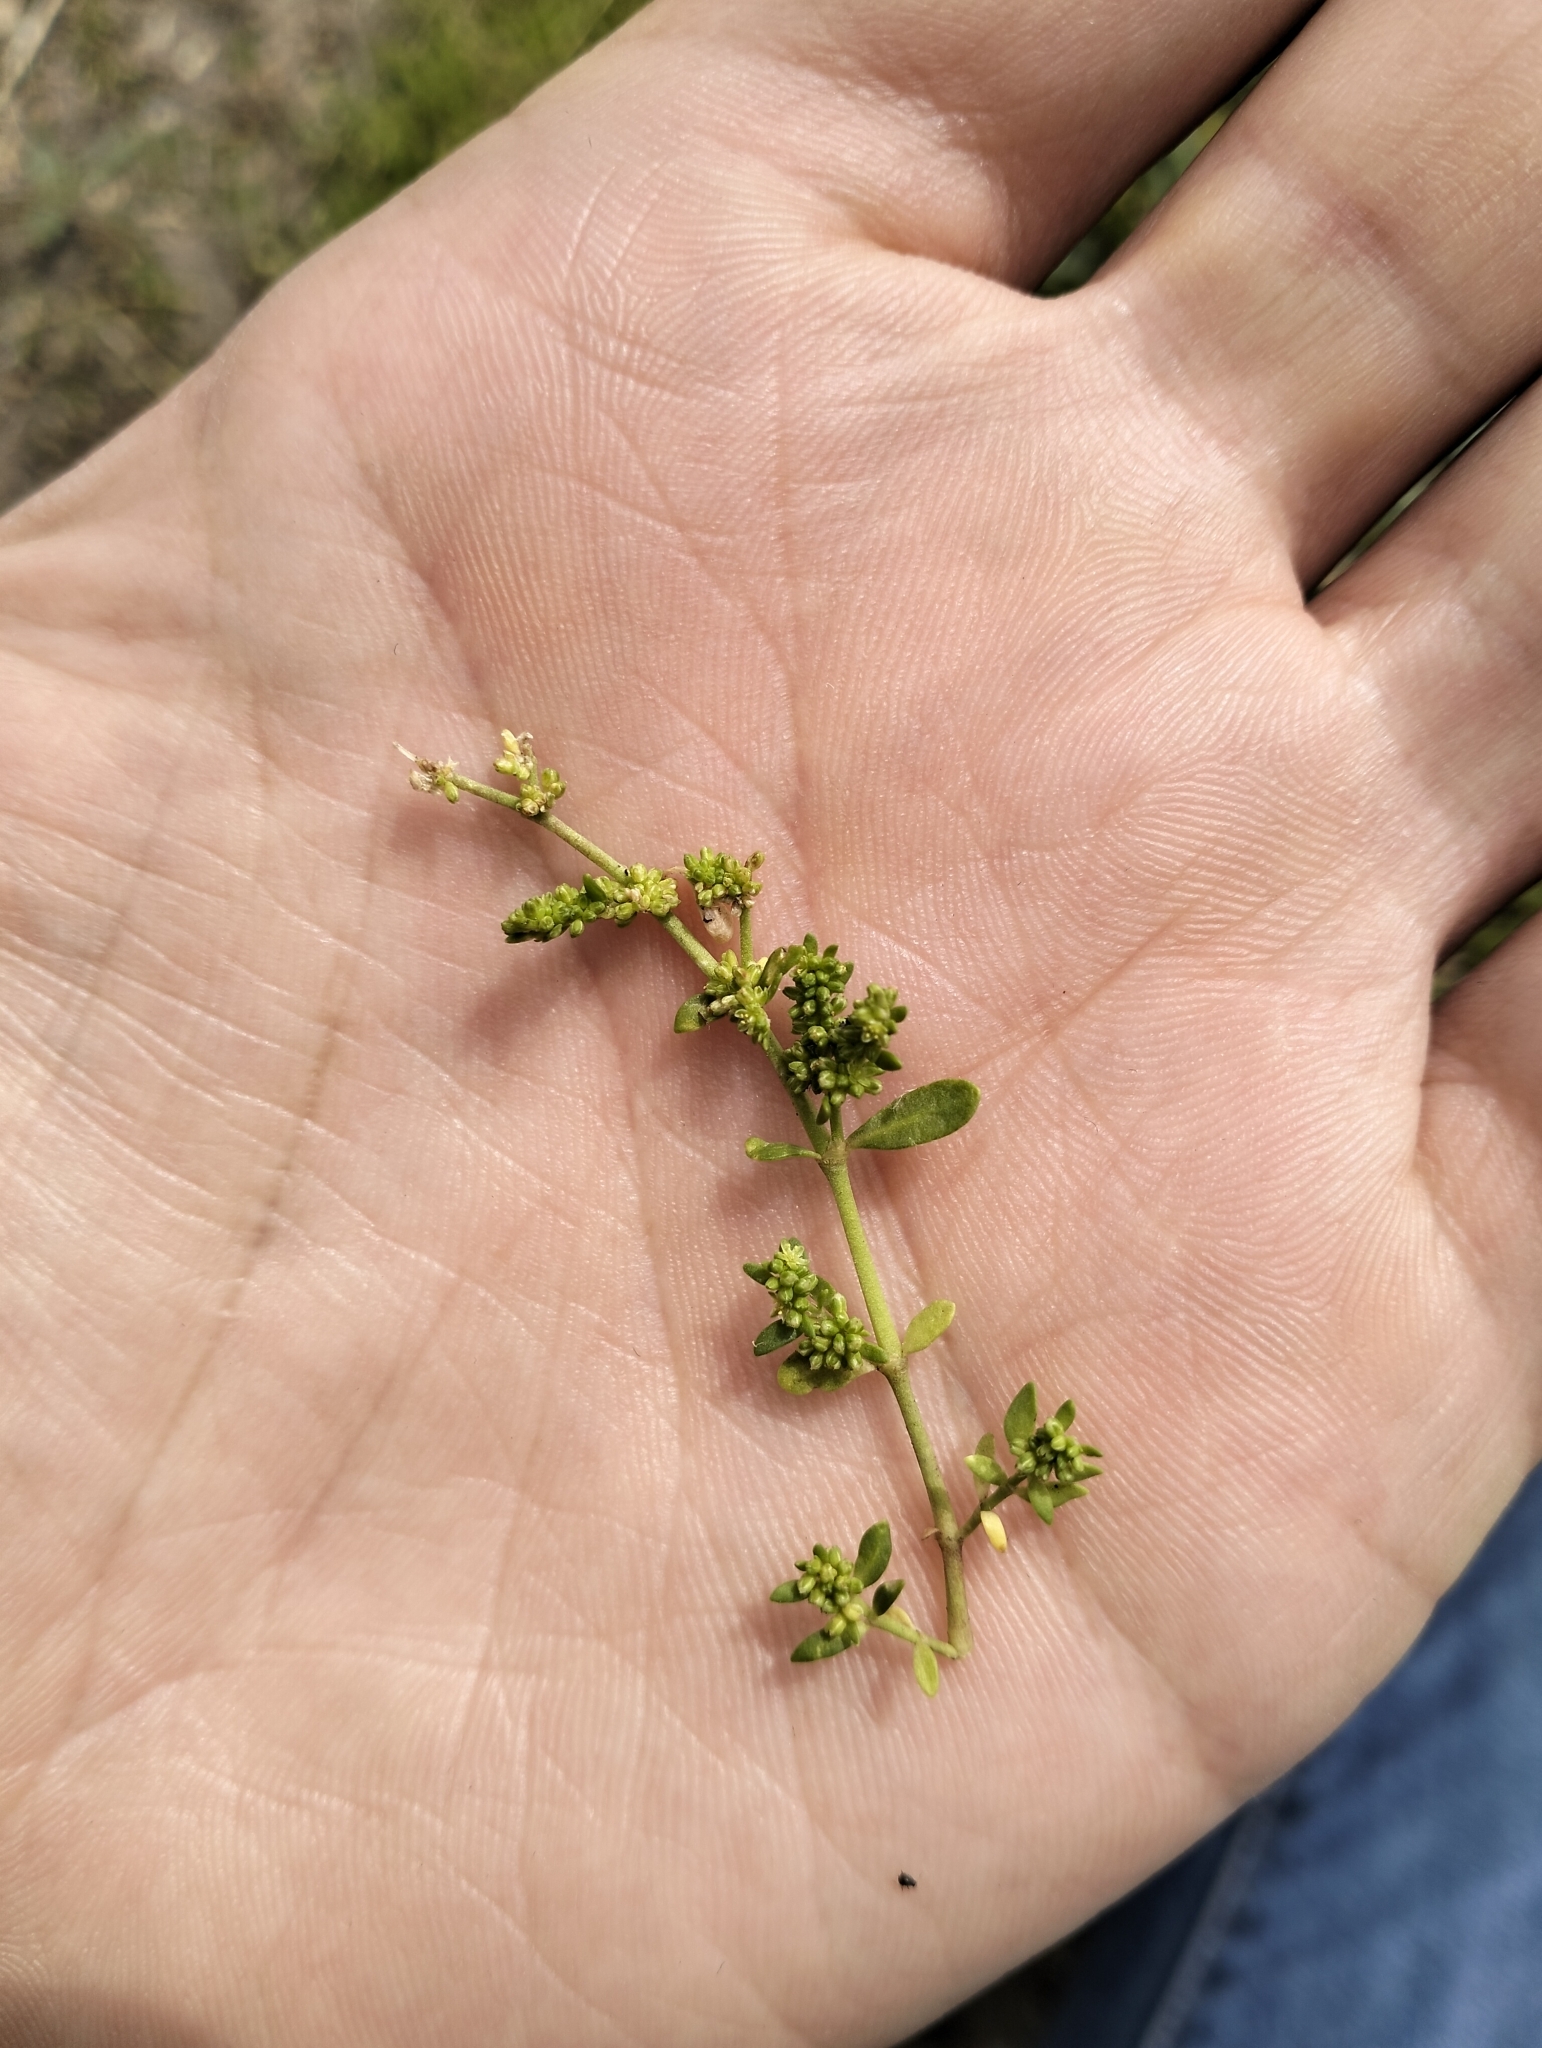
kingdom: Plantae
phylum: Tracheophyta
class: Magnoliopsida
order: Caryophyllales
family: Caryophyllaceae
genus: Herniaria
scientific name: Herniaria glabra
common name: Smooth rupturewort
